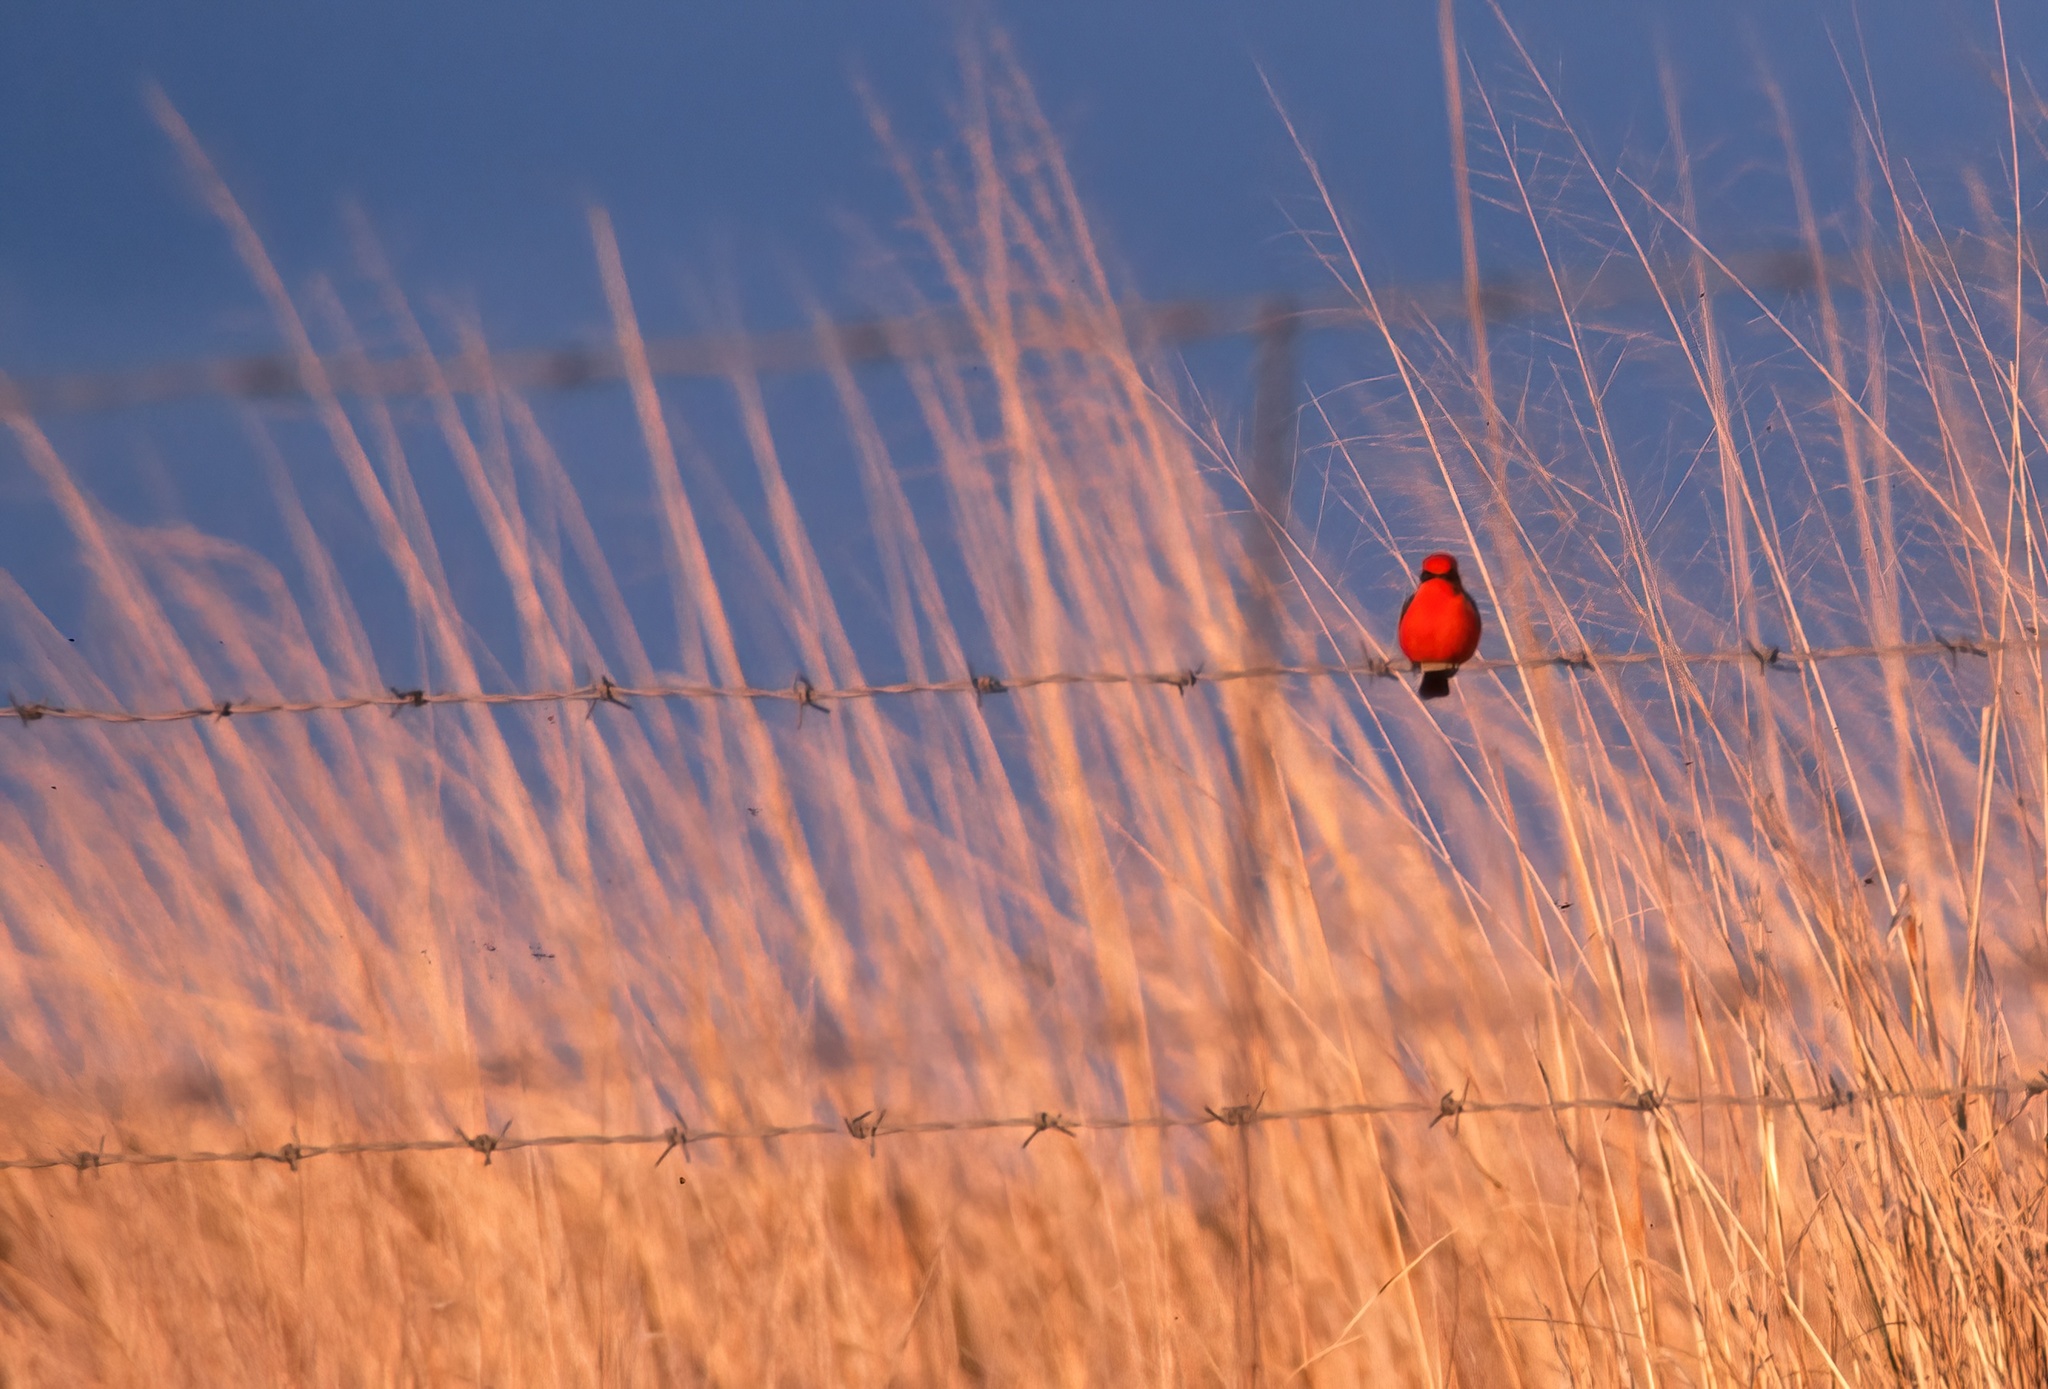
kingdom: Animalia
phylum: Chordata
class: Aves
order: Passeriformes
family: Tyrannidae
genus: Pyrocephalus
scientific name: Pyrocephalus rubinus
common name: Vermilion flycatcher
